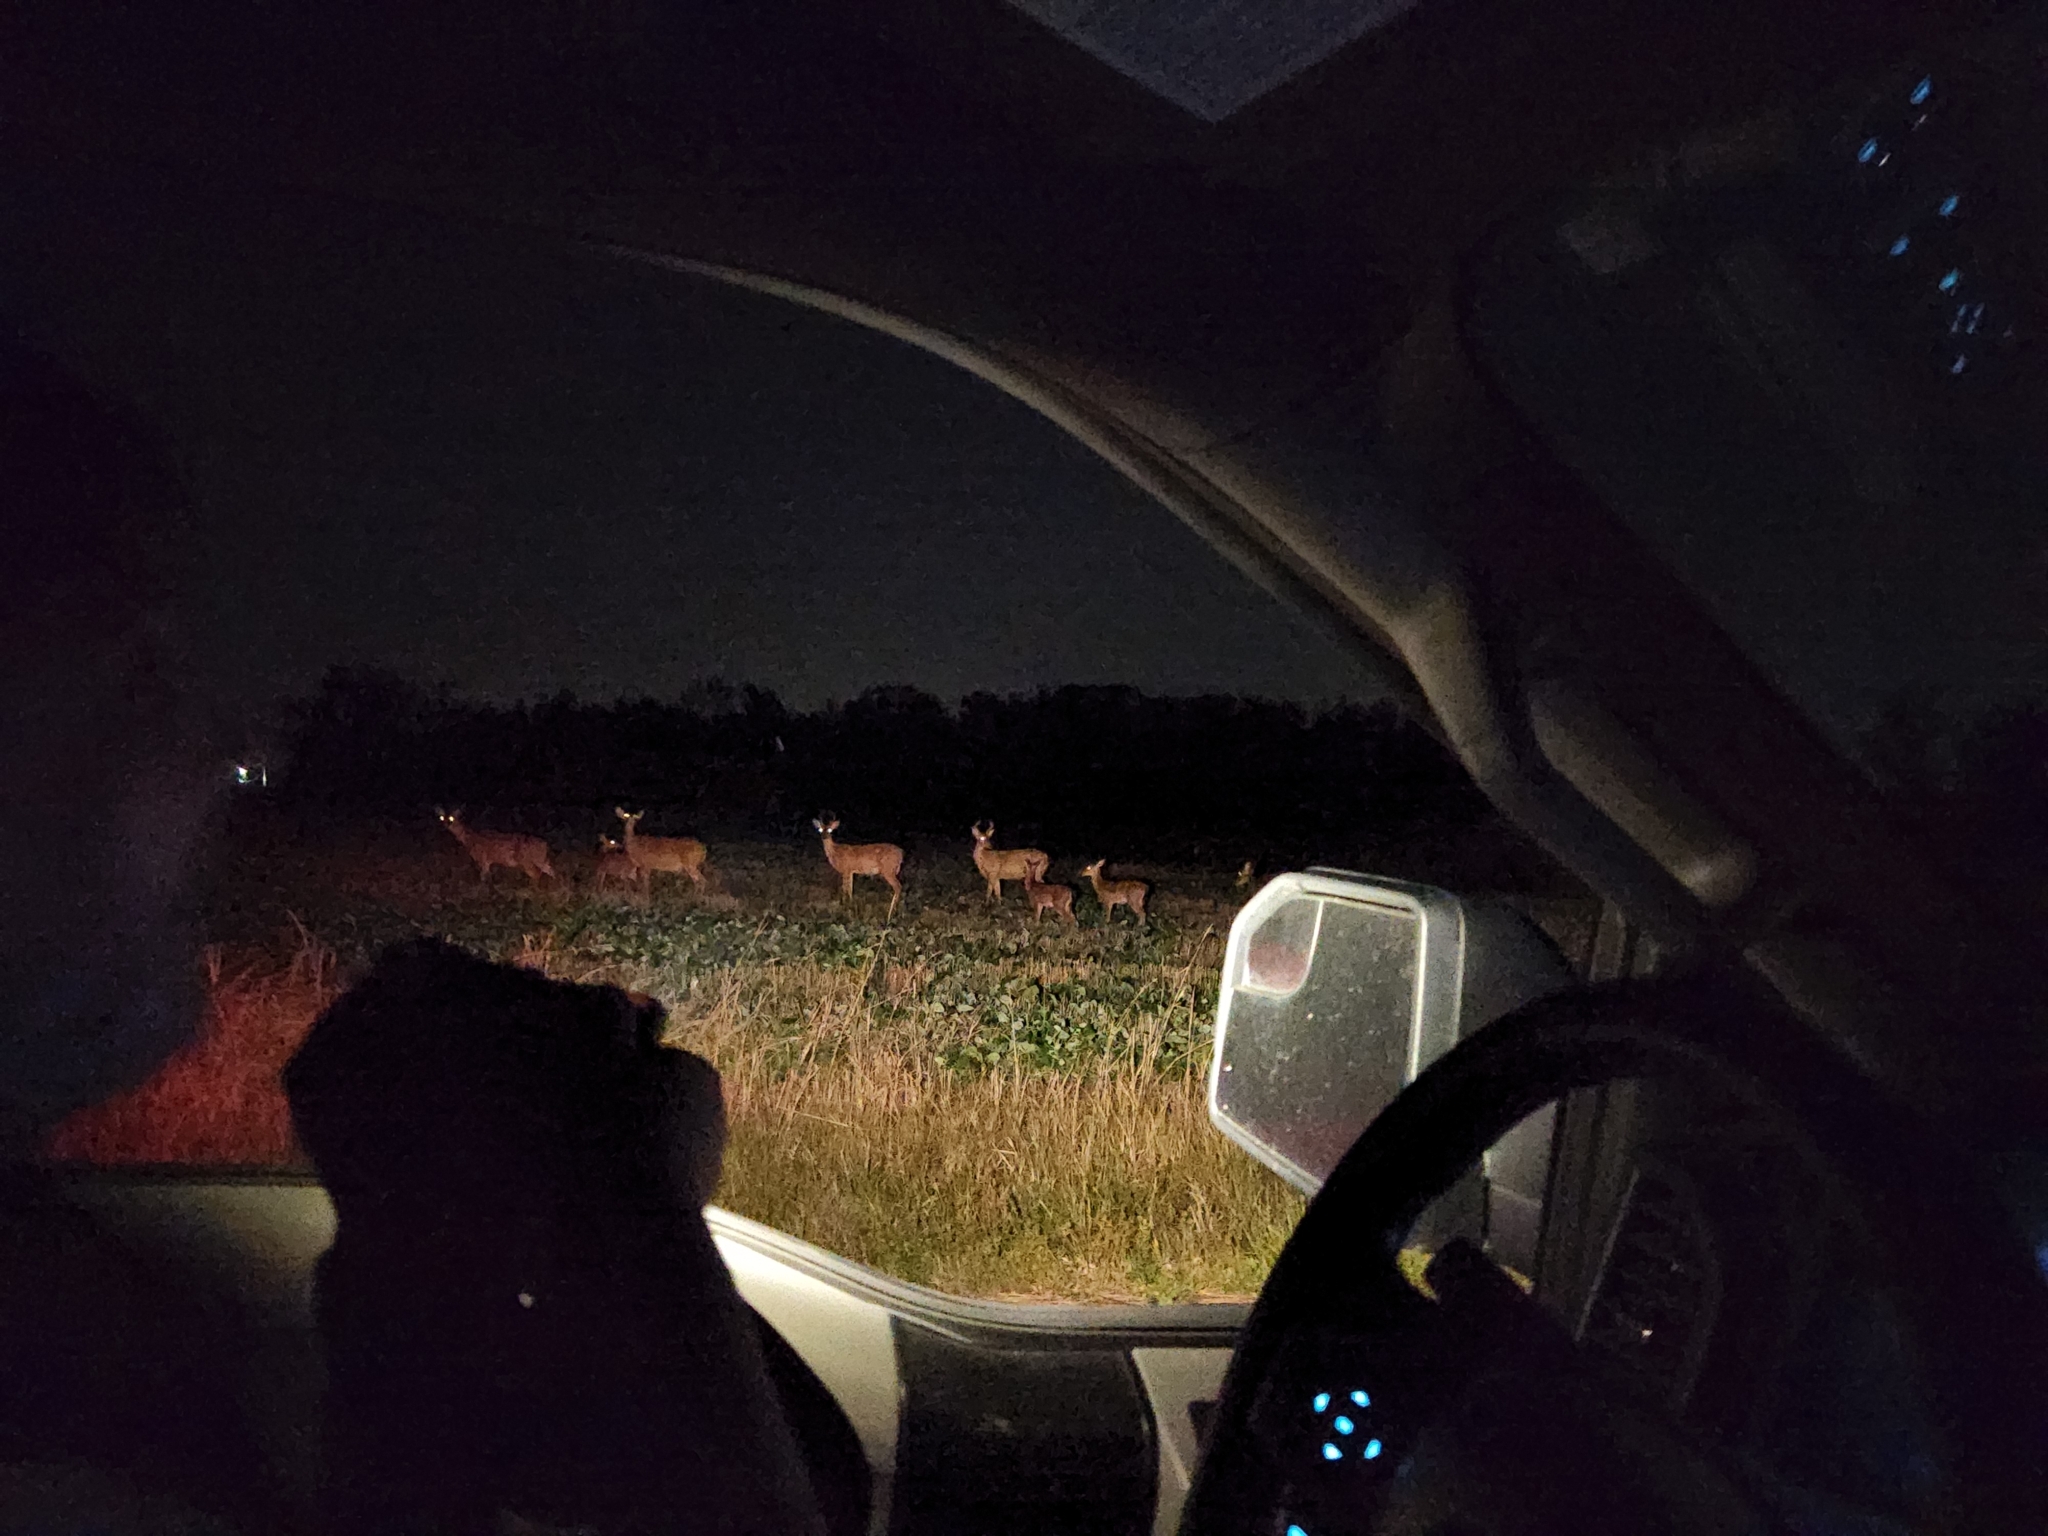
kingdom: Animalia
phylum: Chordata
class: Mammalia
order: Artiodactyla
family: Cervidae
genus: Odocoileus
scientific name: Odocoileus virginianus
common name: White-tailed deer
